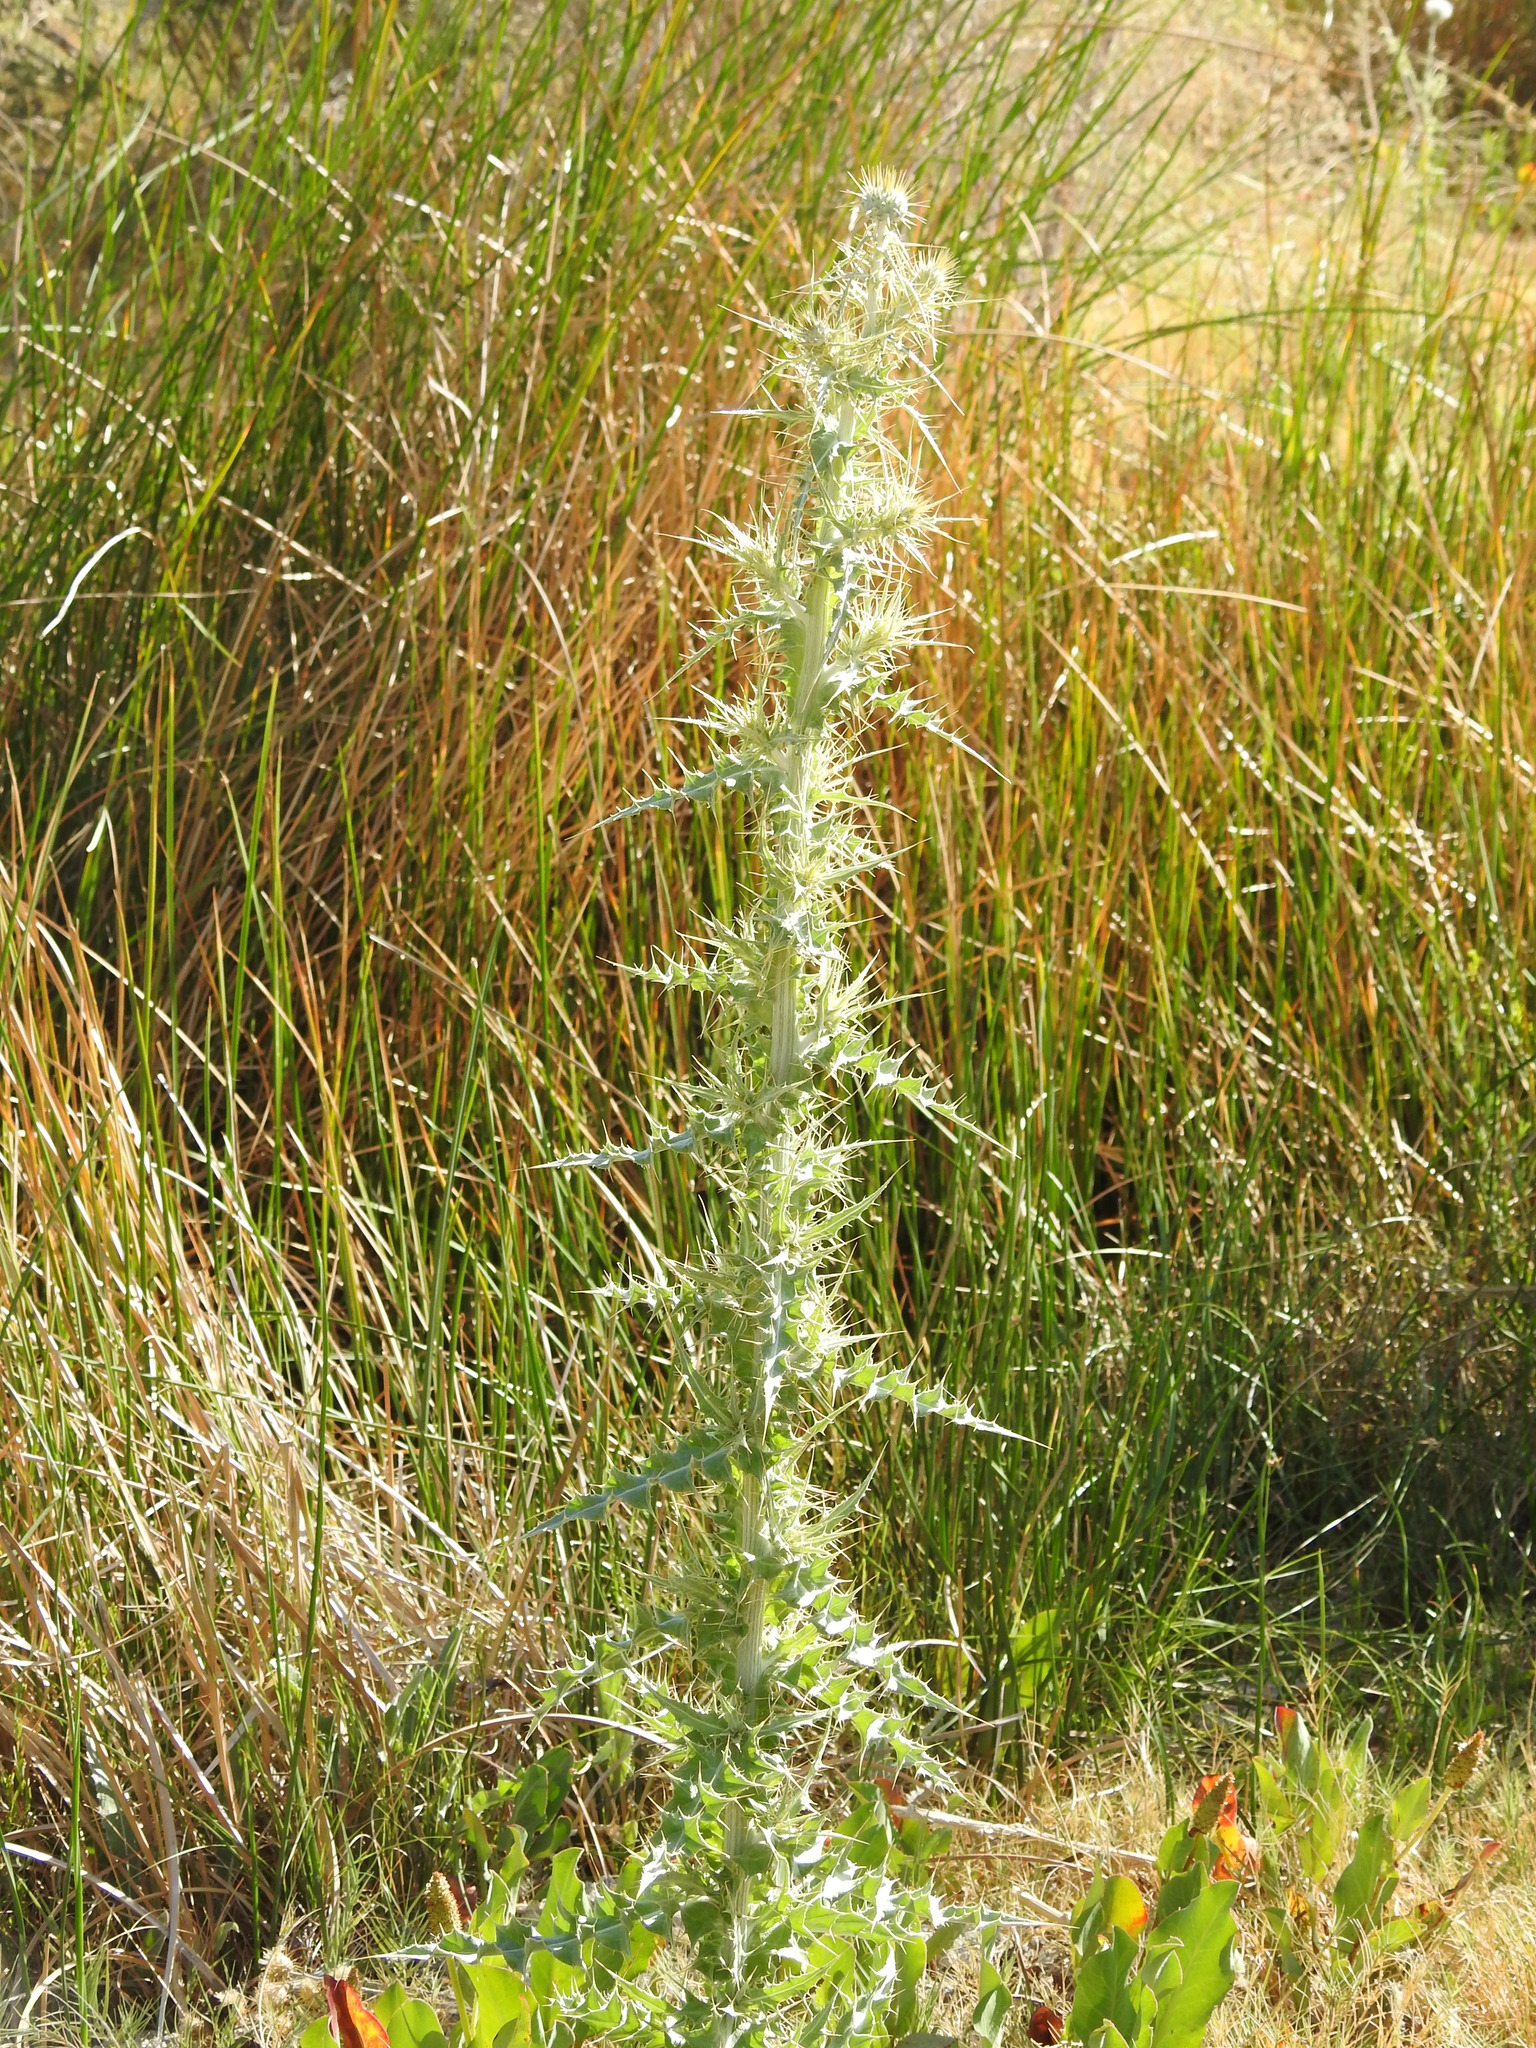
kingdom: Plantae
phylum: Tracheophyta
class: Magnoliopsida
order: Asterales
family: Asteraceae
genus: Cirsium
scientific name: Cirsium mohavense
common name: Mojave thistle
